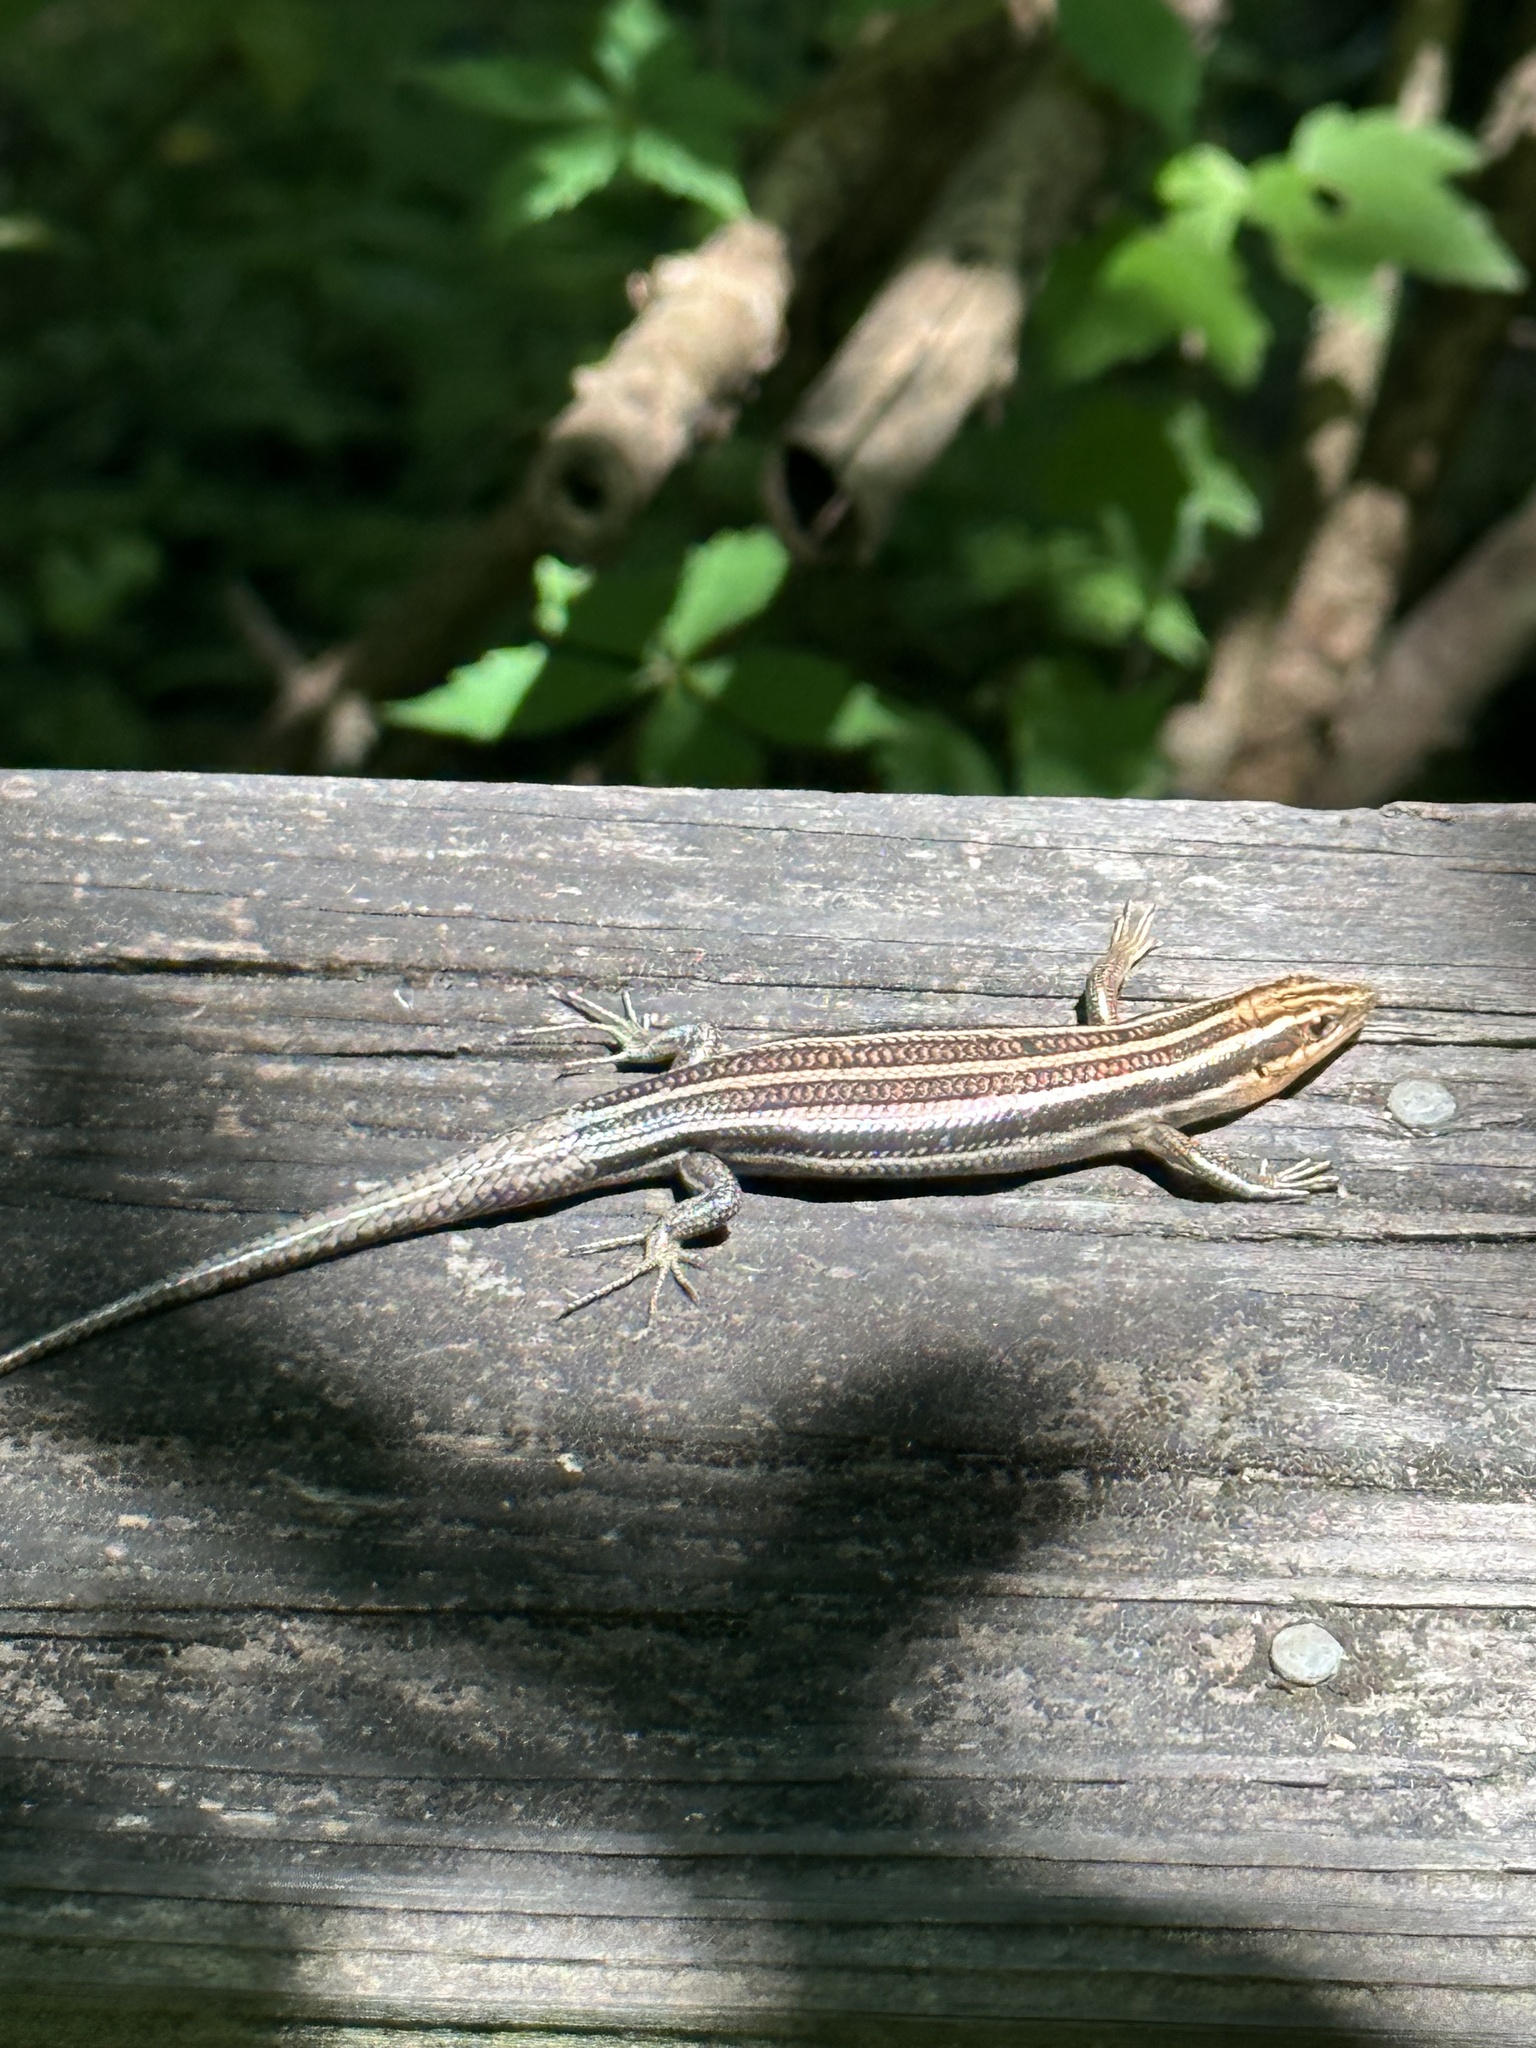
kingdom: Animalia
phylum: Chordata
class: Squamata
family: Scincidae
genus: Plestiodon
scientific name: Plestiodon fasciatus
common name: Five-lined skink
